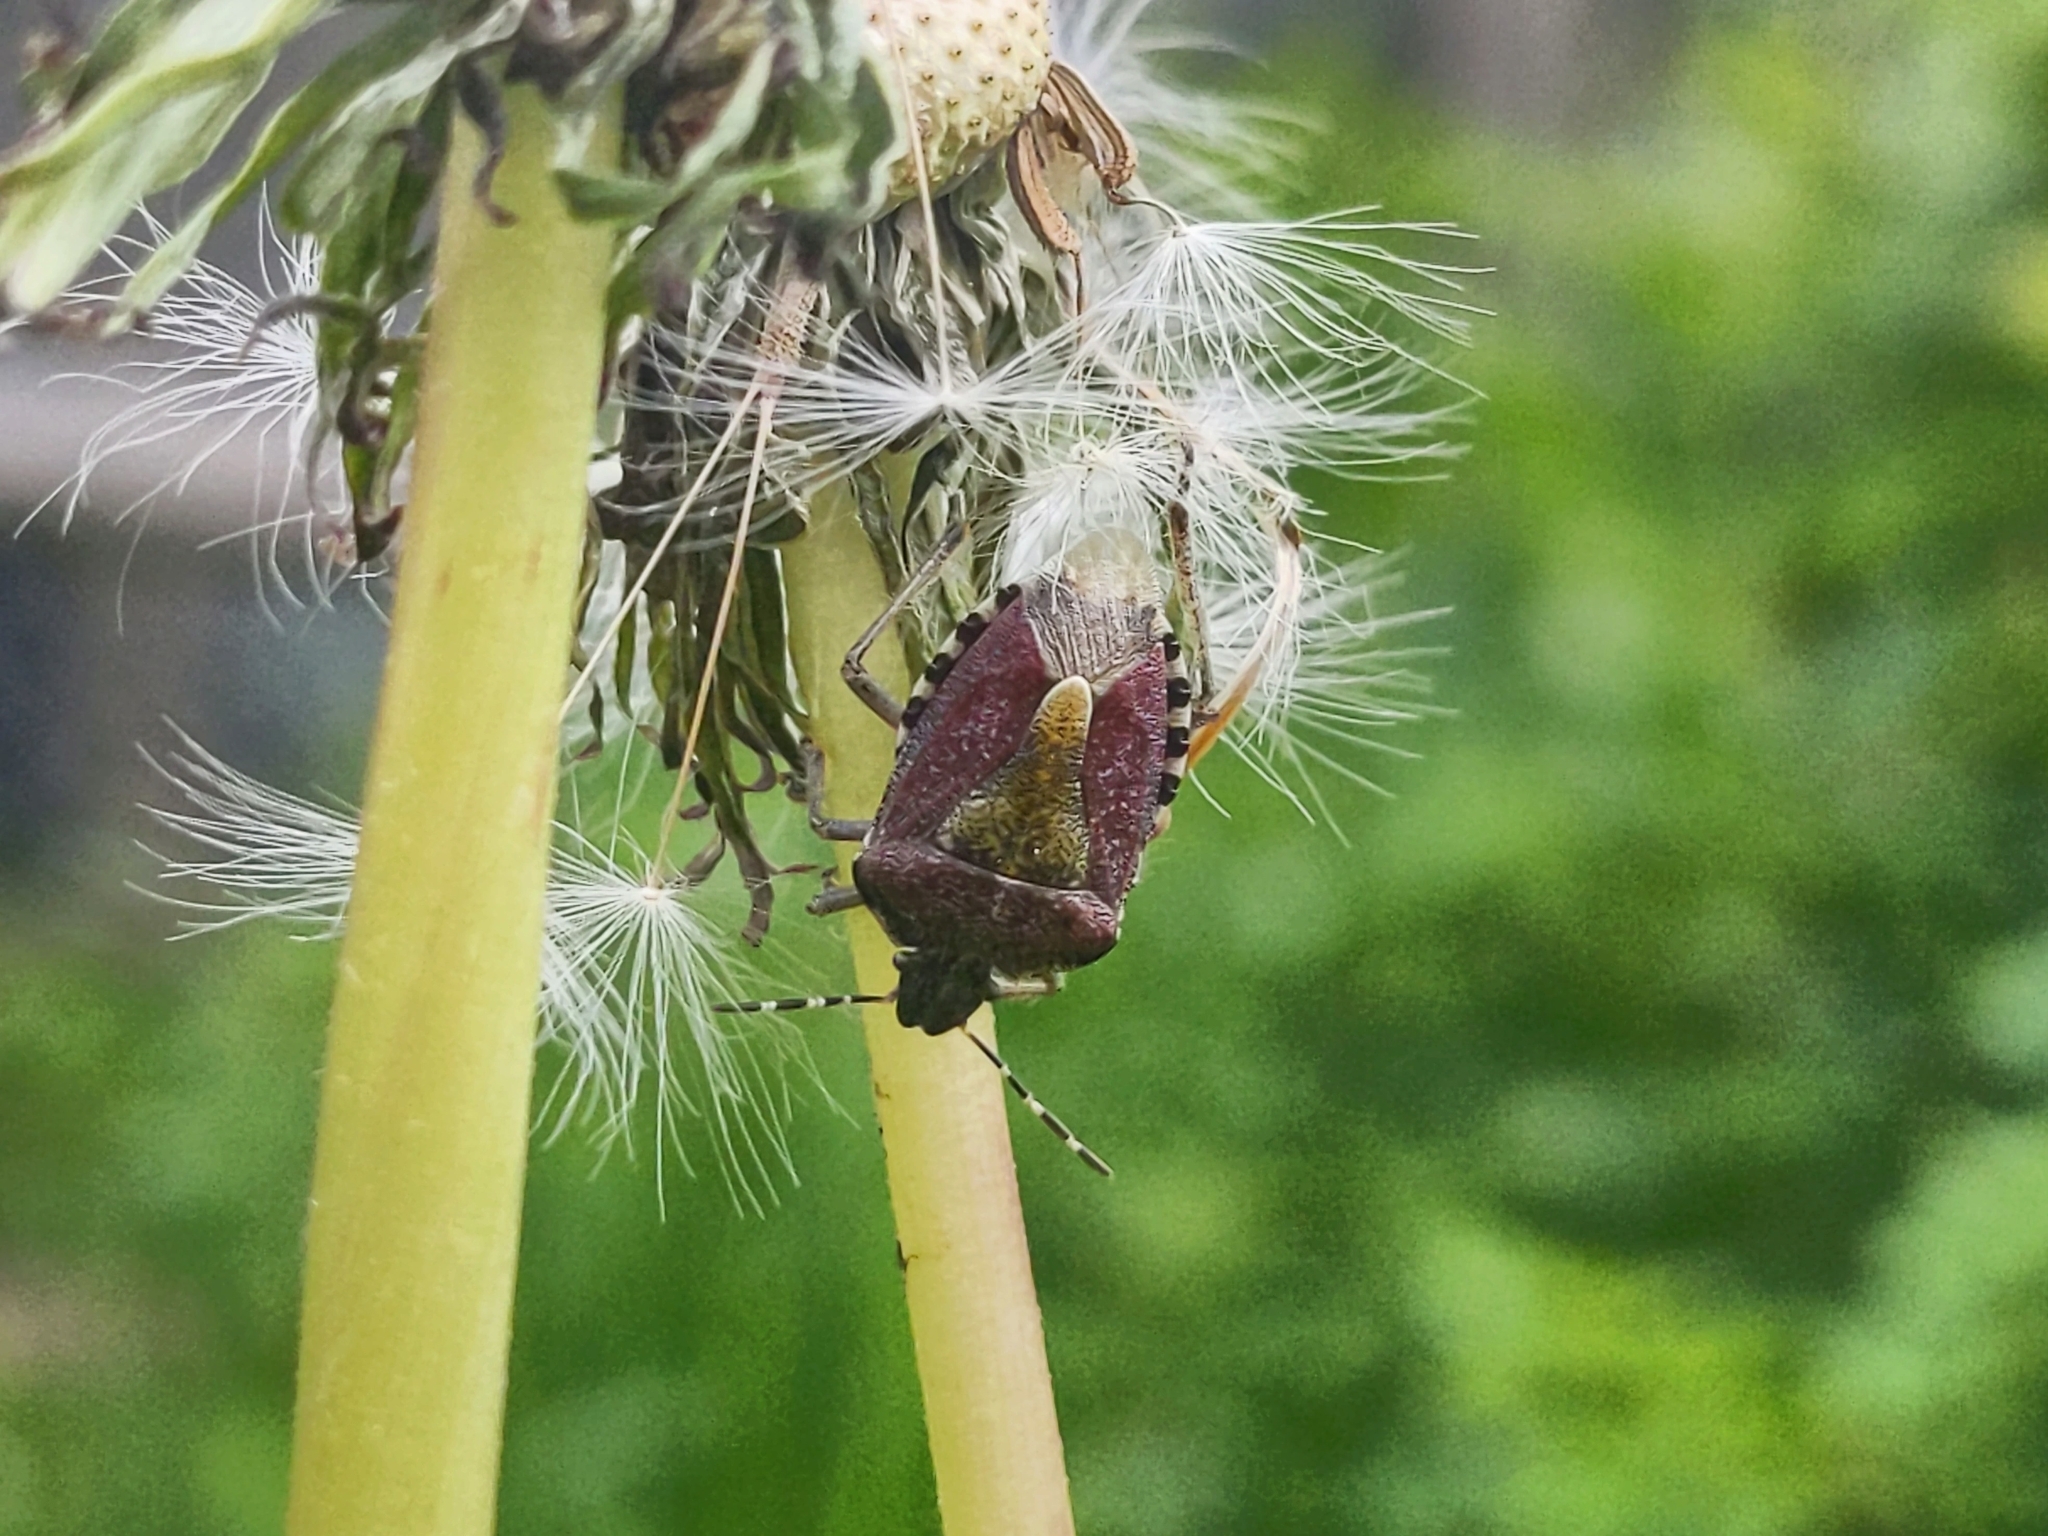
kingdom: Animalia
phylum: Arthropoda
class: Insecta
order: Hemiptera
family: Pentatomidae
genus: Dolycoris
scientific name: Dolycoris baccarum
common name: Sloe bug
